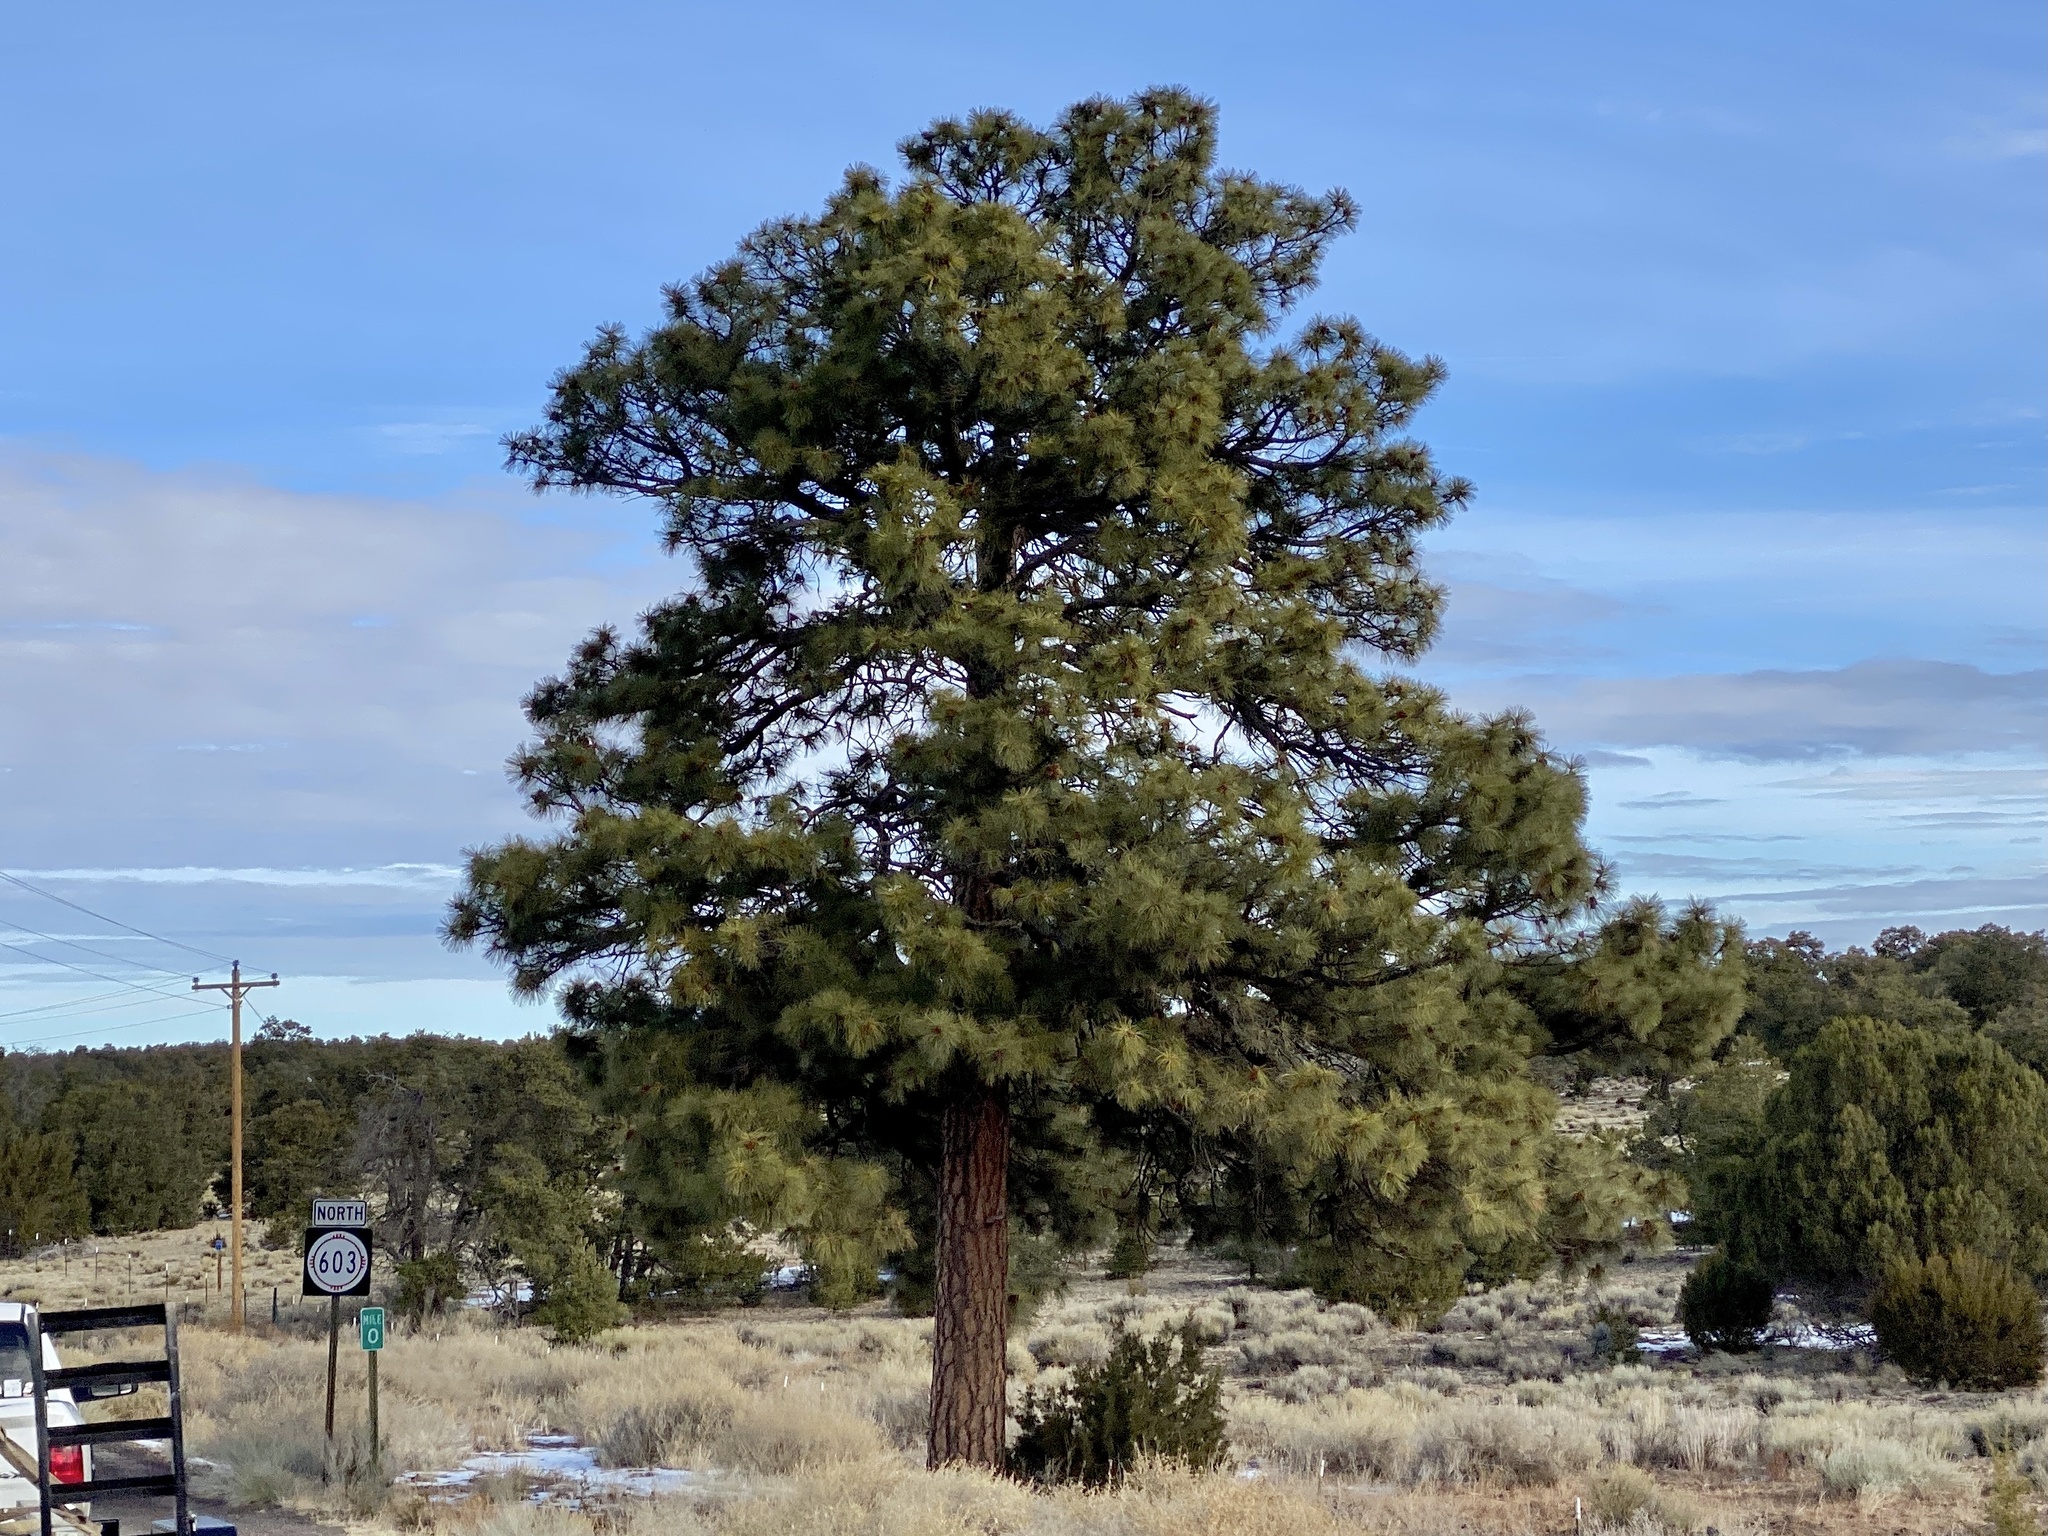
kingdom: Plantae
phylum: Tracheophyta
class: Pinopsida
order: Pinales
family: Pinaceae
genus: Pinus
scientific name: Pinus ponderosa
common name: Western yellow-pine
